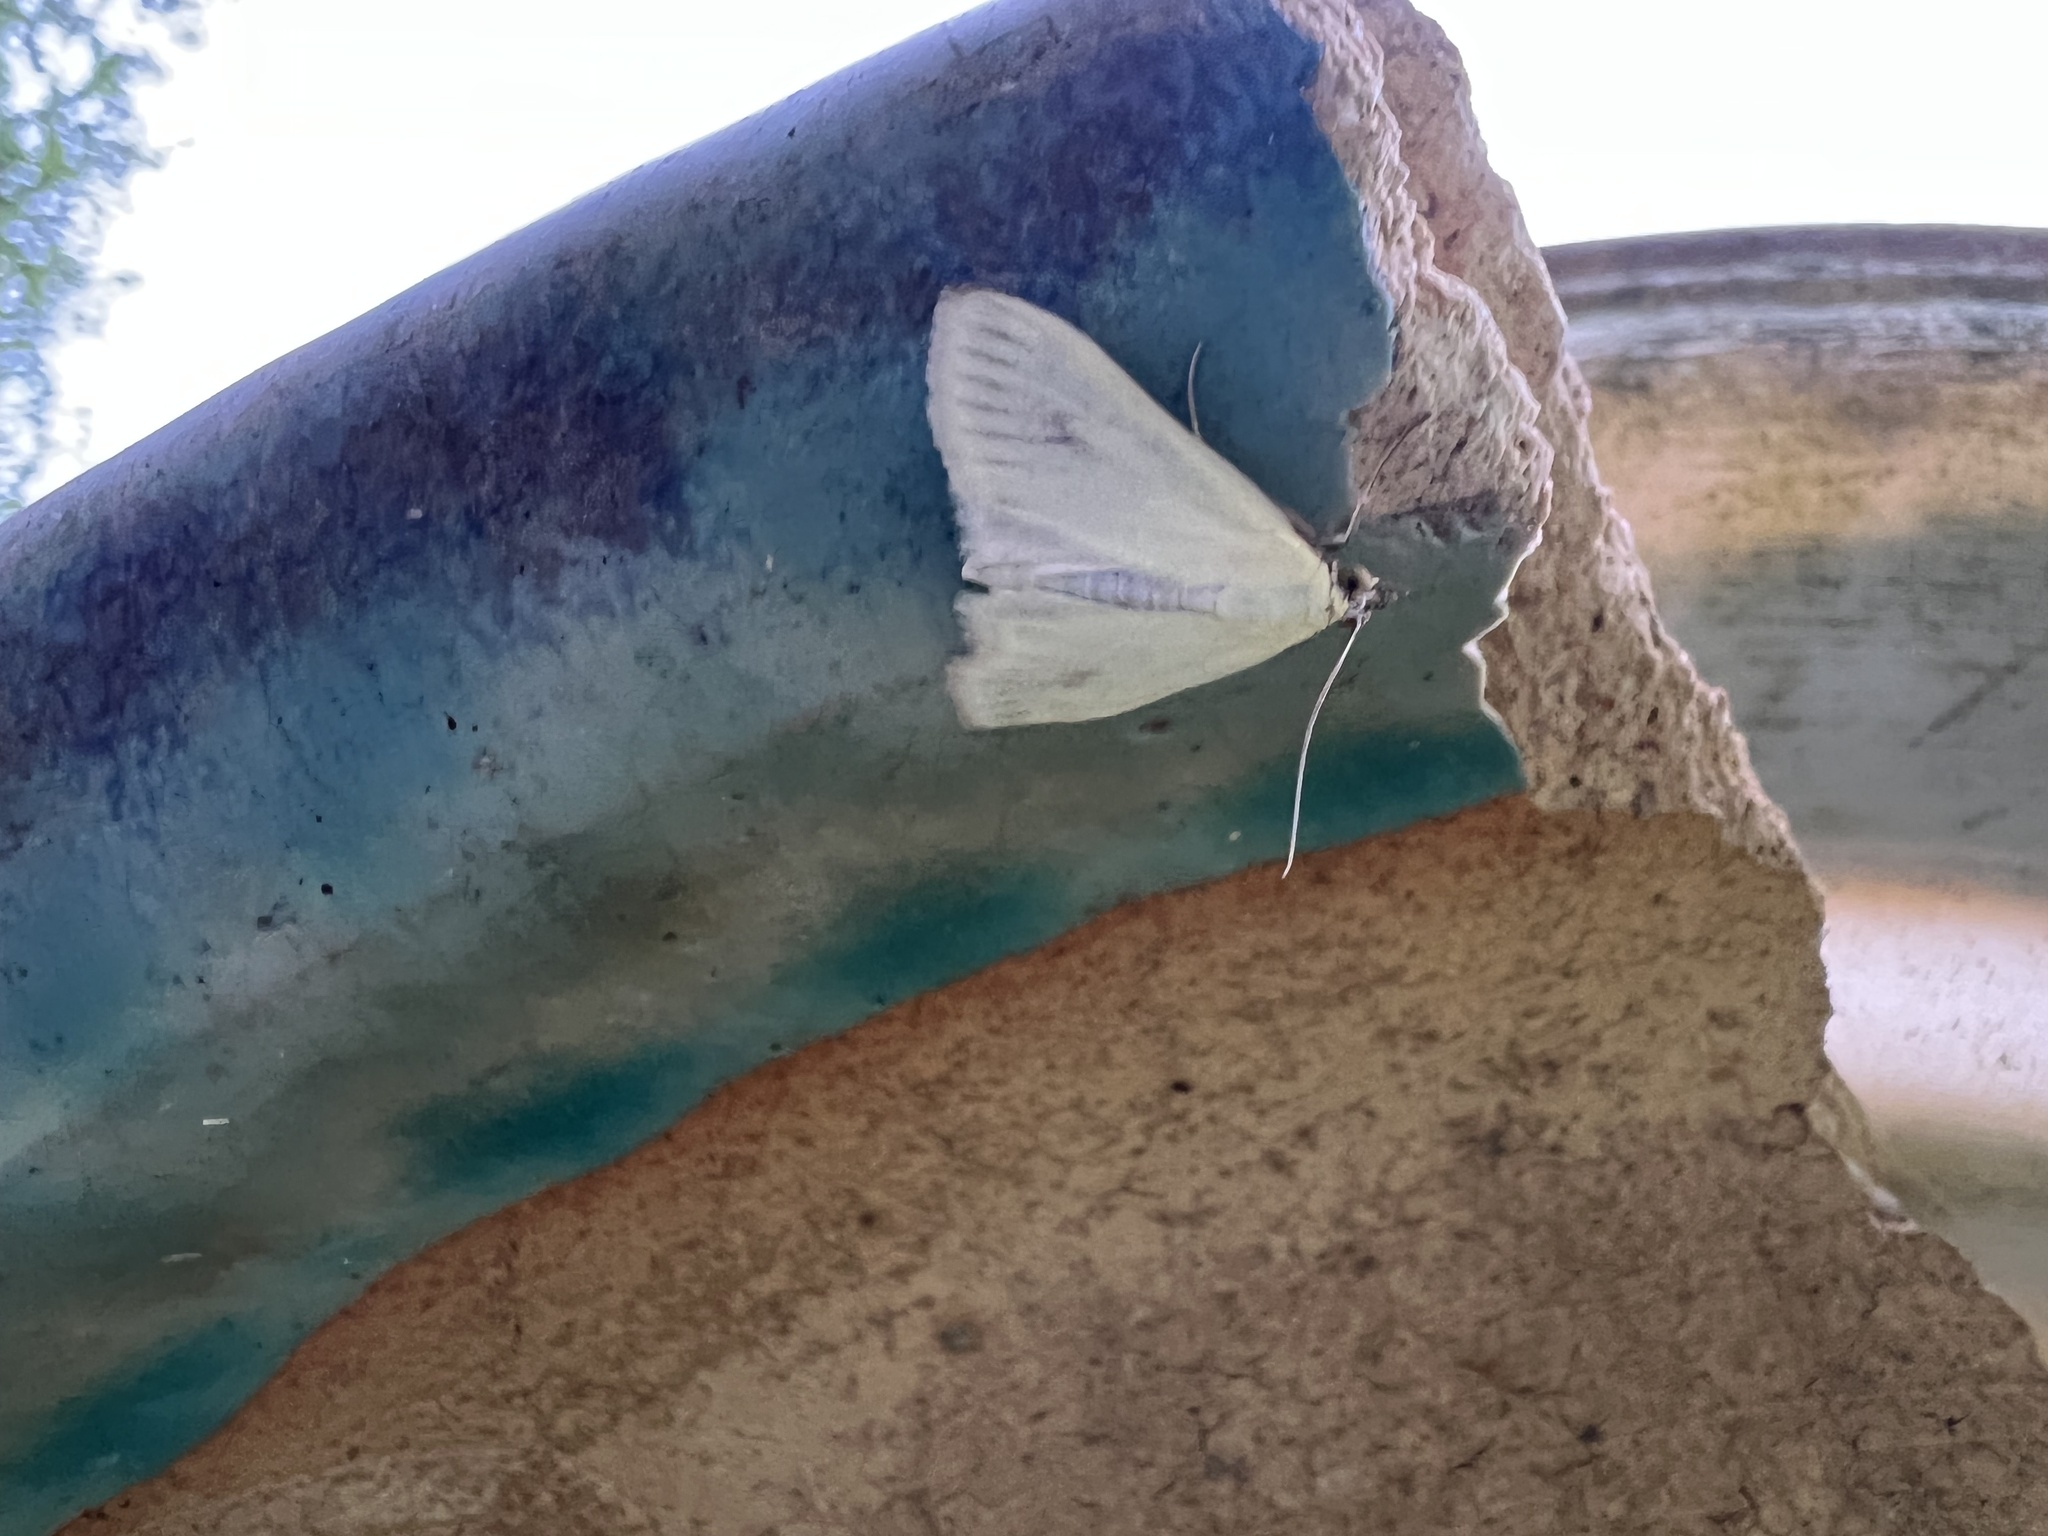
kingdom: Animalia
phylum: Arthropoda
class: Insecta
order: Lepidoptera
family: Crambidae
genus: Sitochroa
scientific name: Sitochroa palealis
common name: Greenish-yellow sitochroa moth
